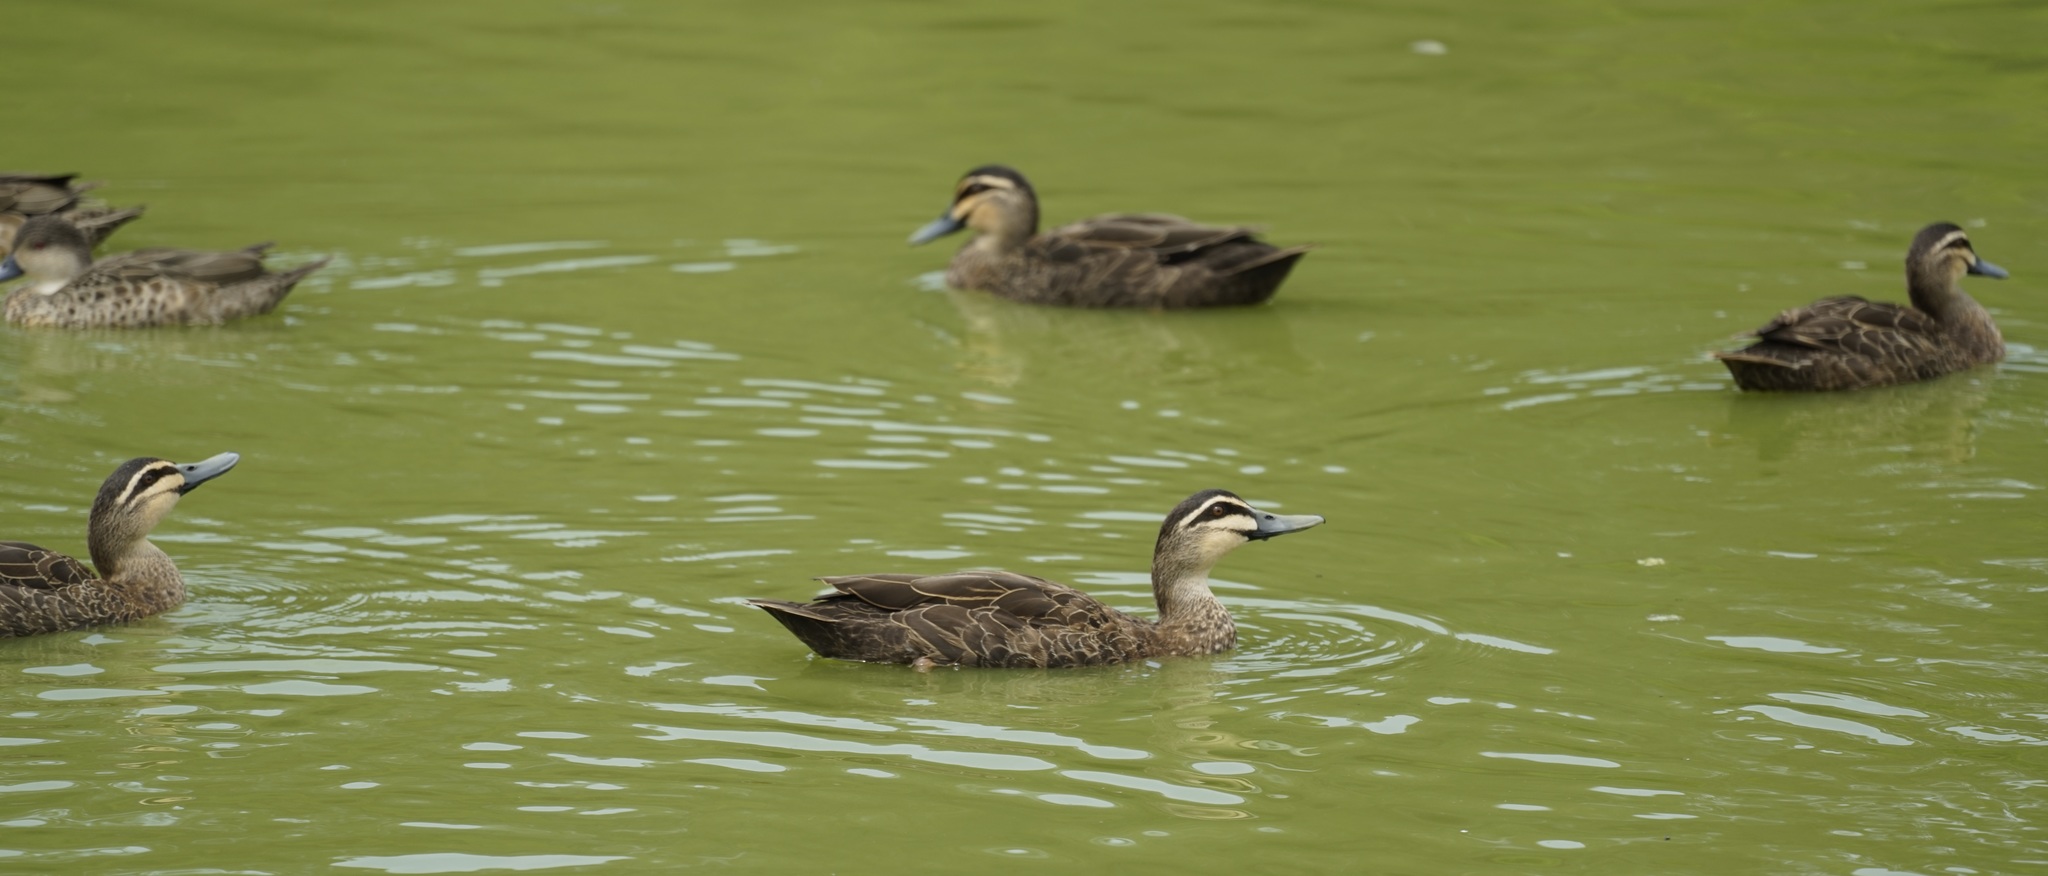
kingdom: Animalia
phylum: Chordata
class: Aves
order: Anseriformes
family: Anatidae
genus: Anas
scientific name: Anas superciliosa
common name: Pacific black duck
